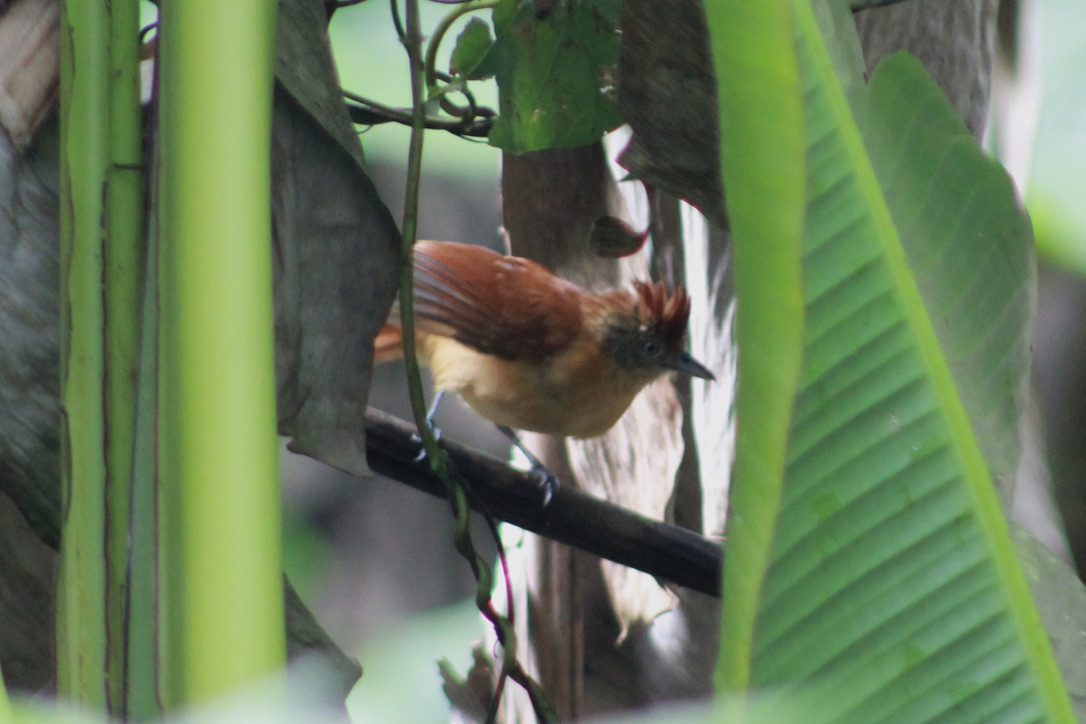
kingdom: Animalia
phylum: Chordata
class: Aves
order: Passeriformes
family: Thamnophilidae
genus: Thamnophilus
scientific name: Thamnophilus doliatus
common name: Barred antshrike
